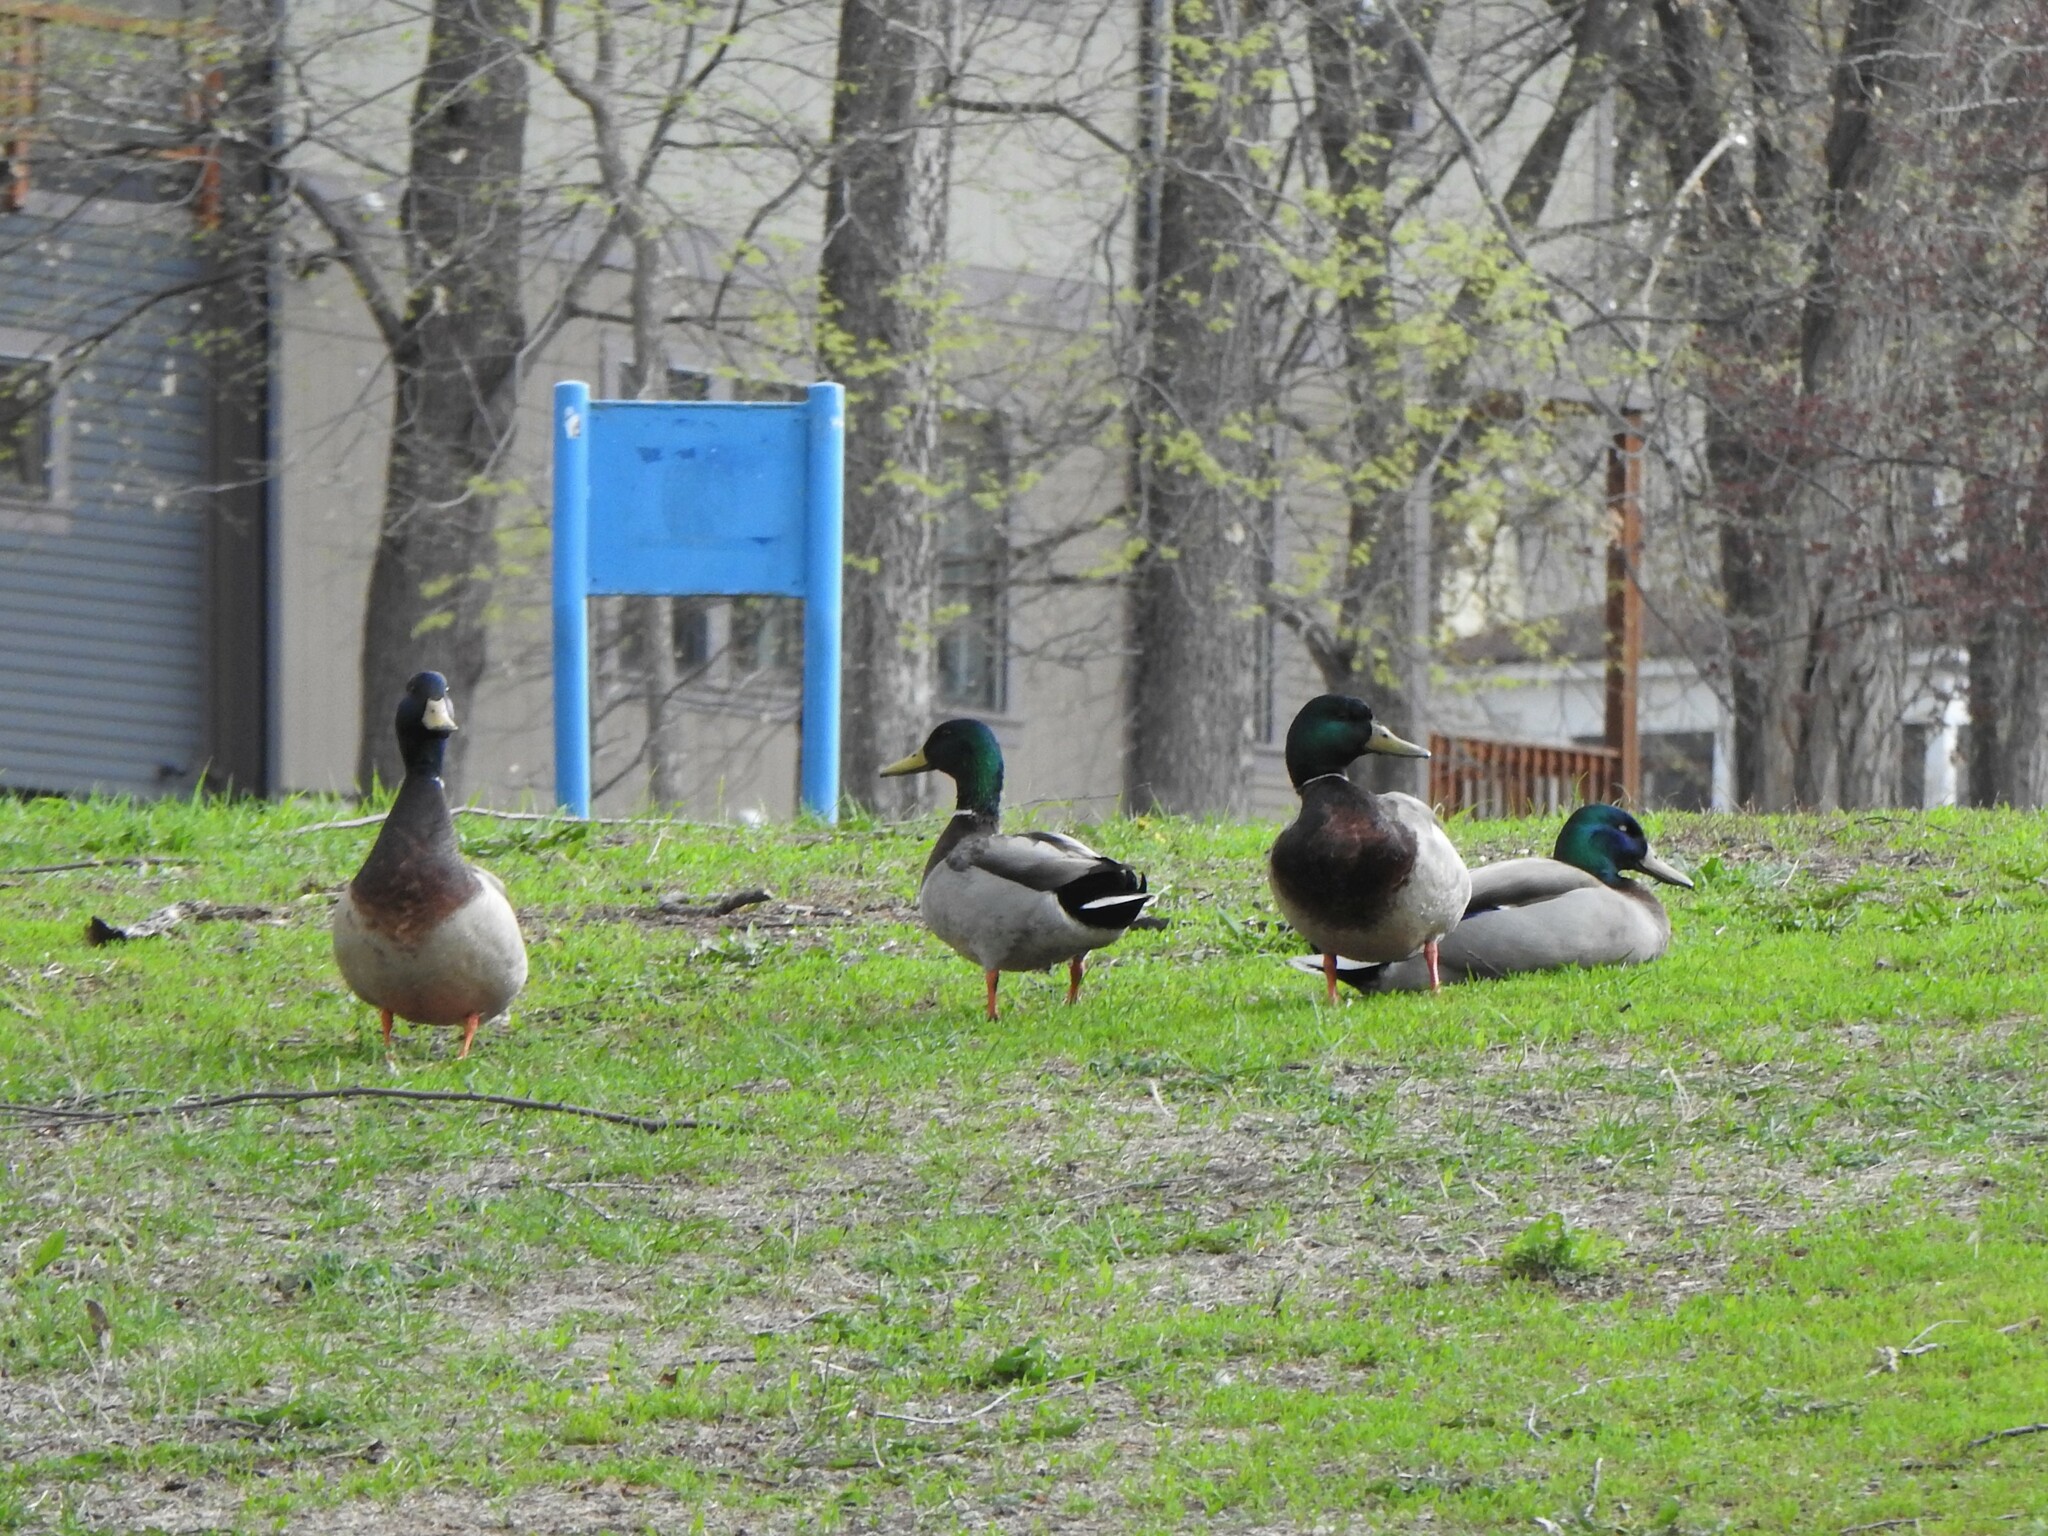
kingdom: Animalia
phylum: Chordata
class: Aves
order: Anseriformes
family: Anatidae
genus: Anas
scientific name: Anas platyrhynchos
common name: Mallard
